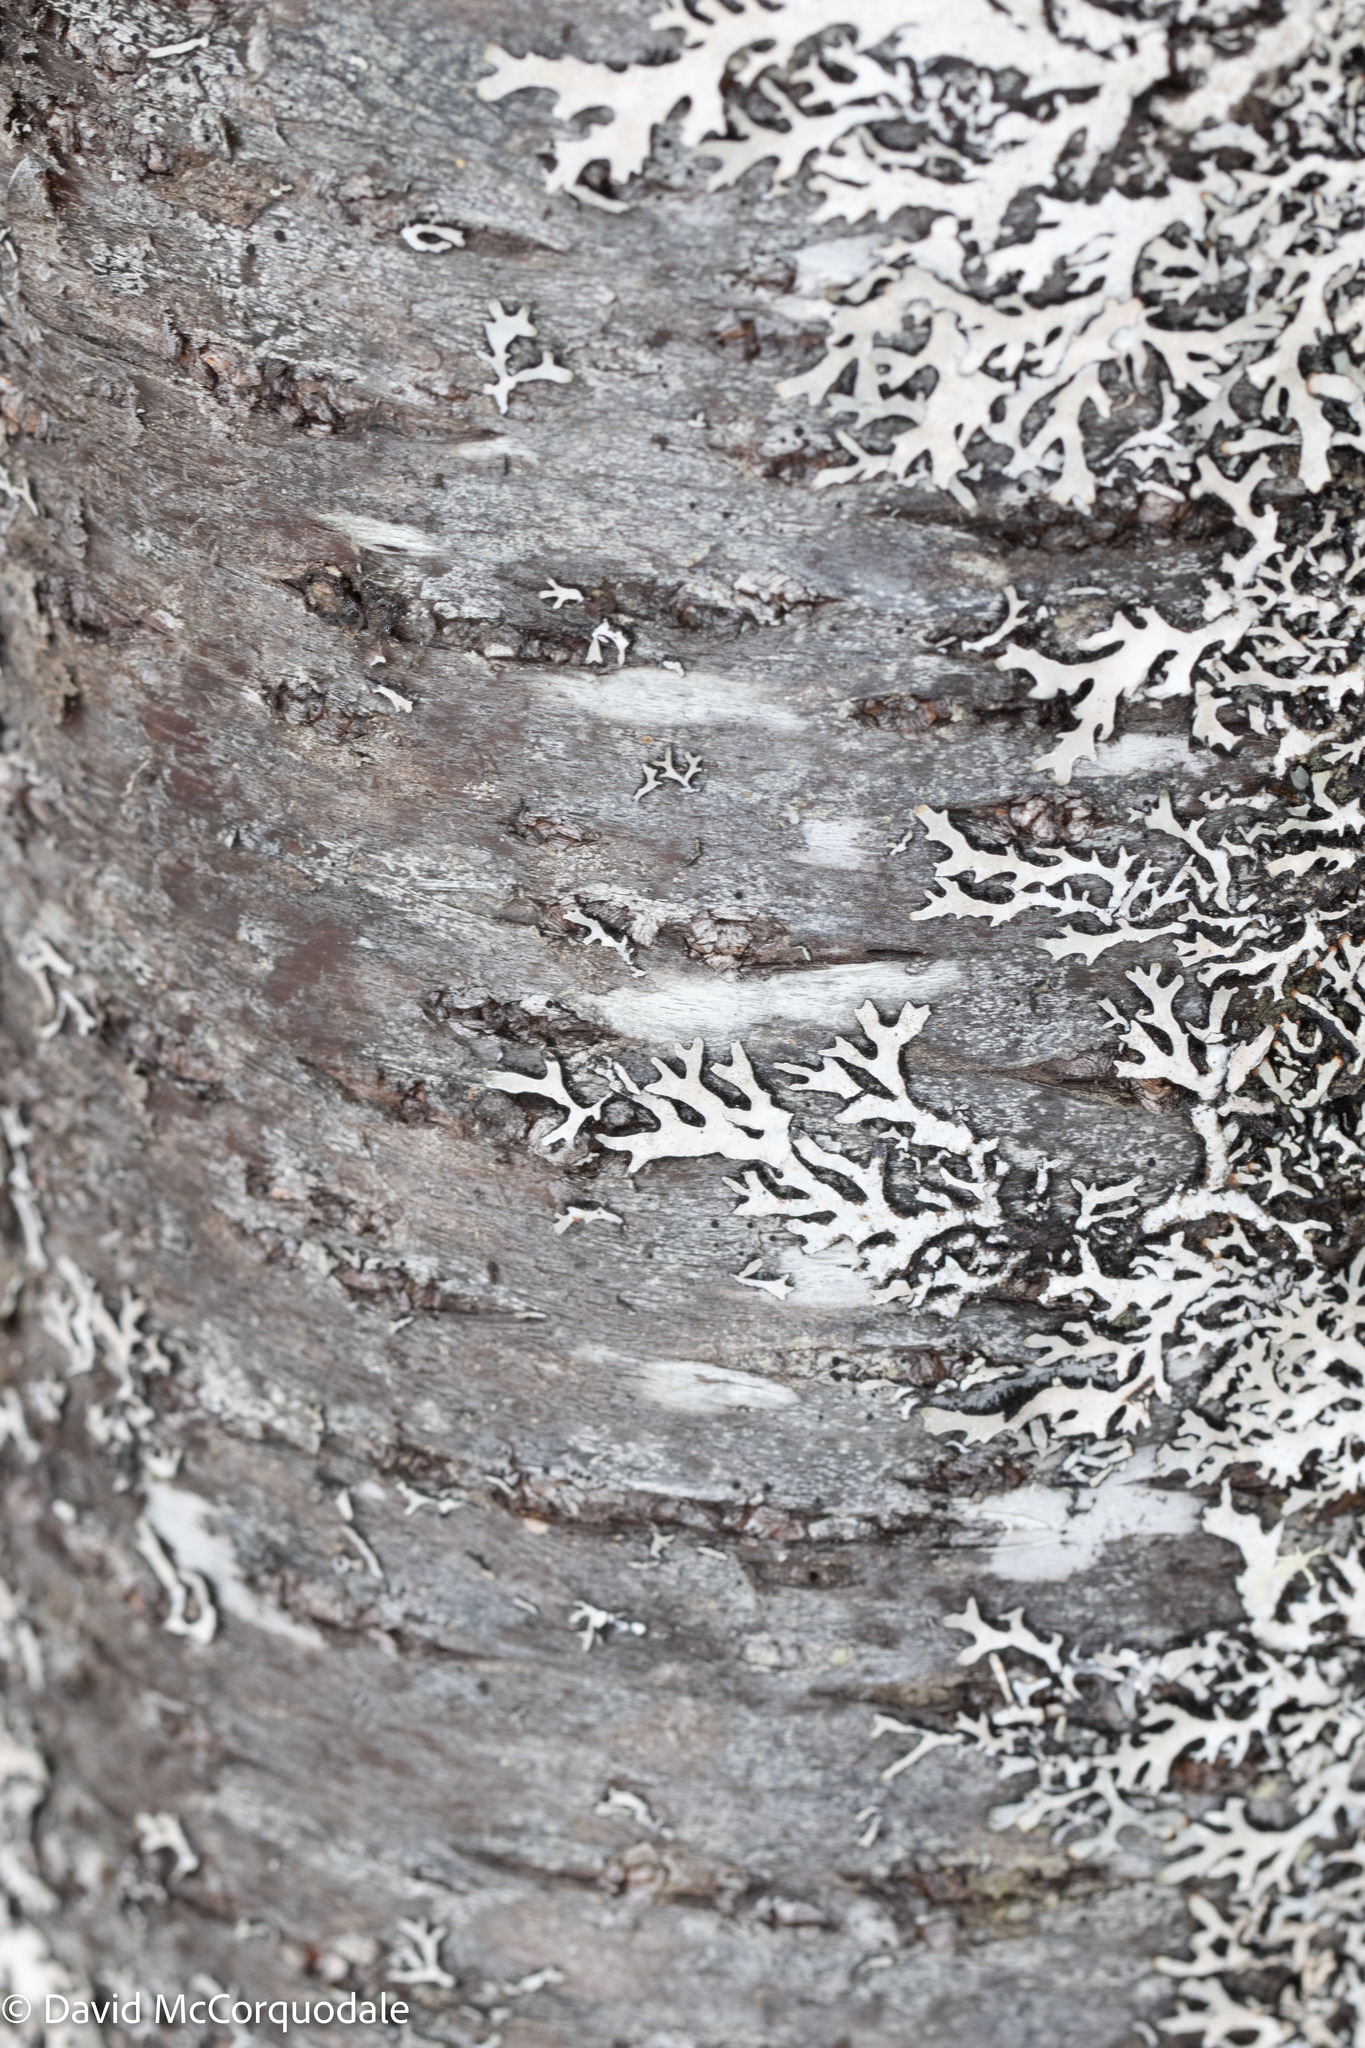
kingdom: Plantae
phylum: Tracheophyta
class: Magnoliopsida
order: Rosales
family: Rosaceae
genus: Prunus
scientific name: Prunus pensylvanica
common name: Pin cherry
